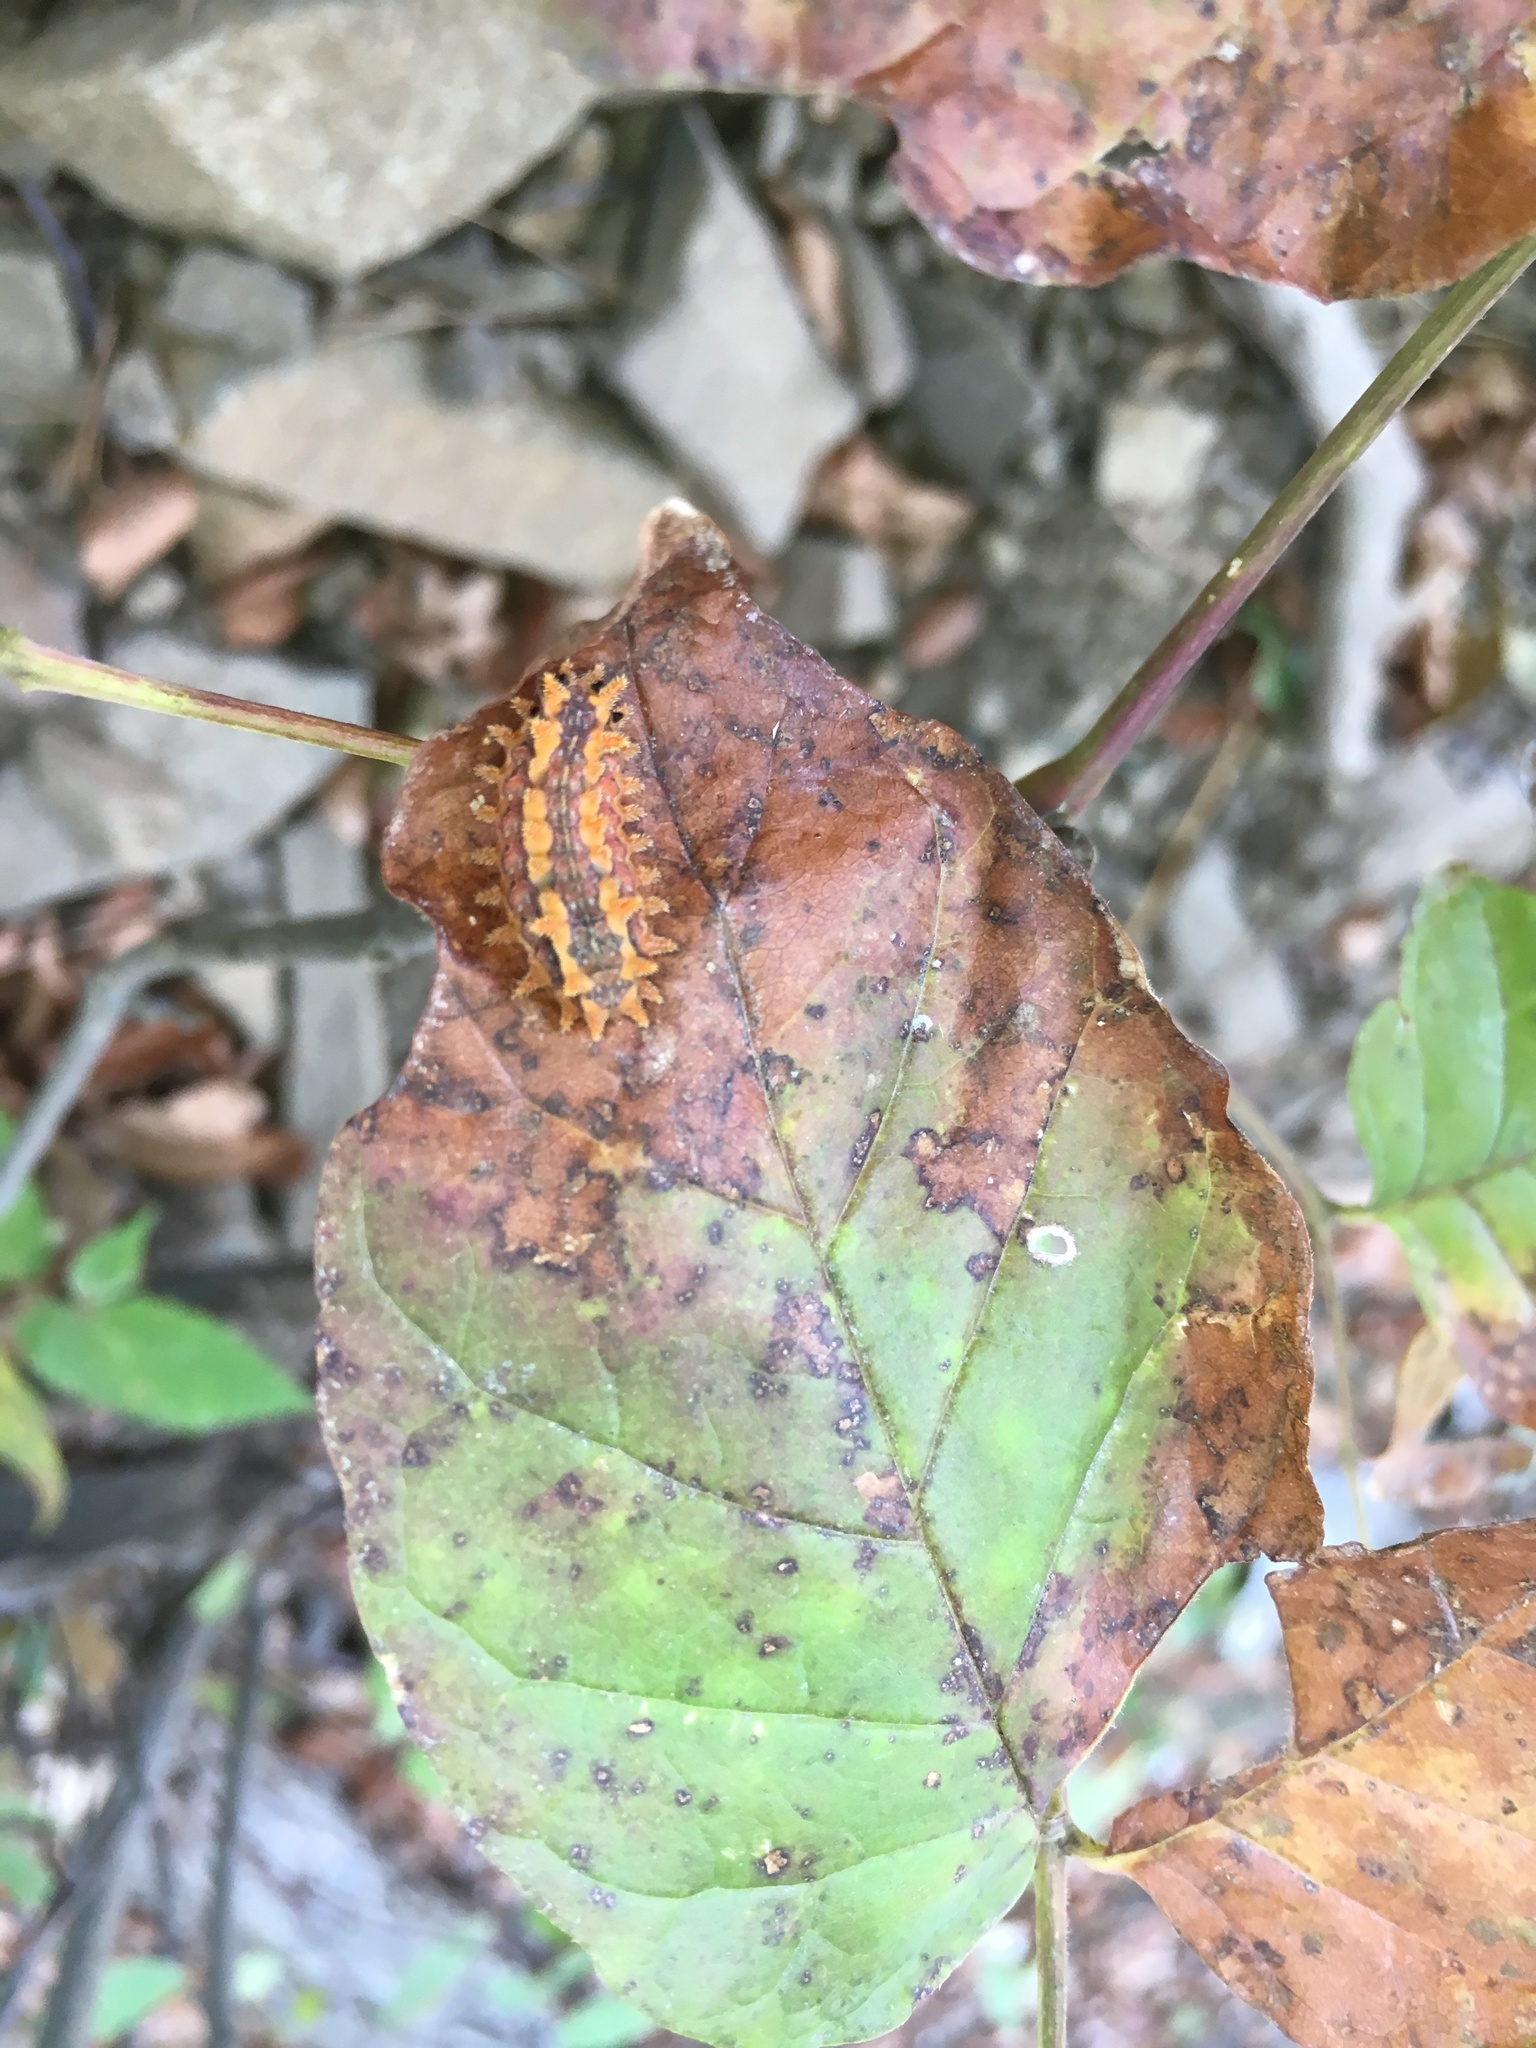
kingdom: Animalia
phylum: Arthropoda
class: Insecta
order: Lepidoptera
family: Limacodidae
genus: Euclea
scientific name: Euclea delphinii
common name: Spiny oak-slug moth
